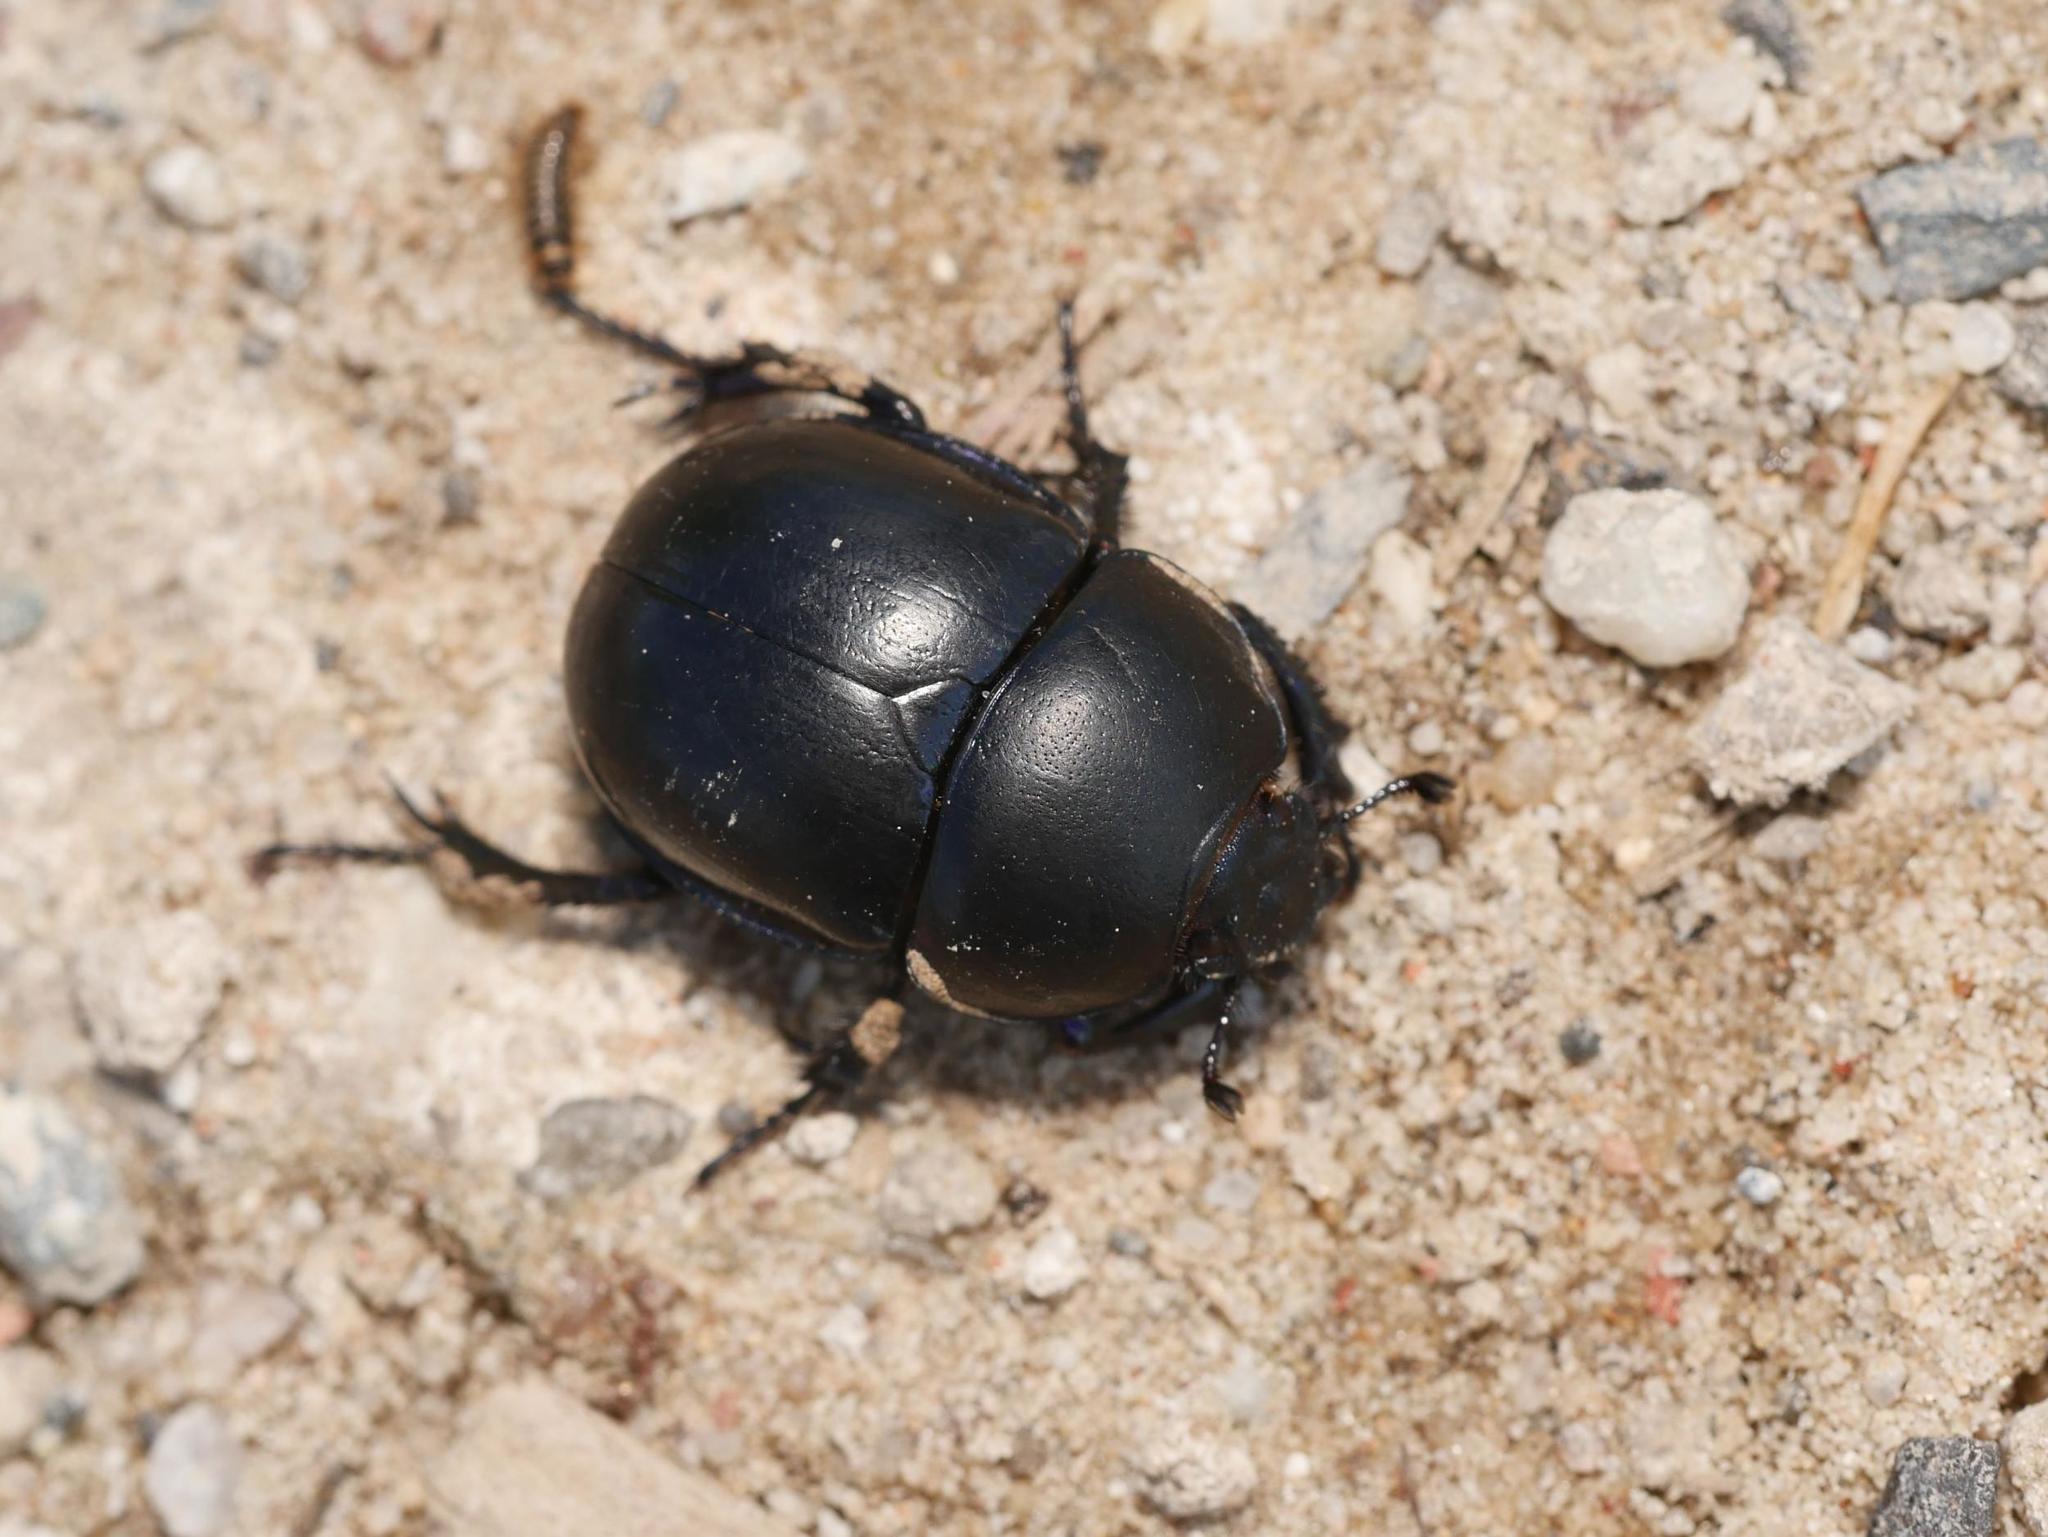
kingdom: Animalia
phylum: Arthropoda
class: Insecta
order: Coleoptera
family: Geotrupidae
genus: Trypocopris
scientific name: Trypocopris vernalis
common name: Spring dumbledor
